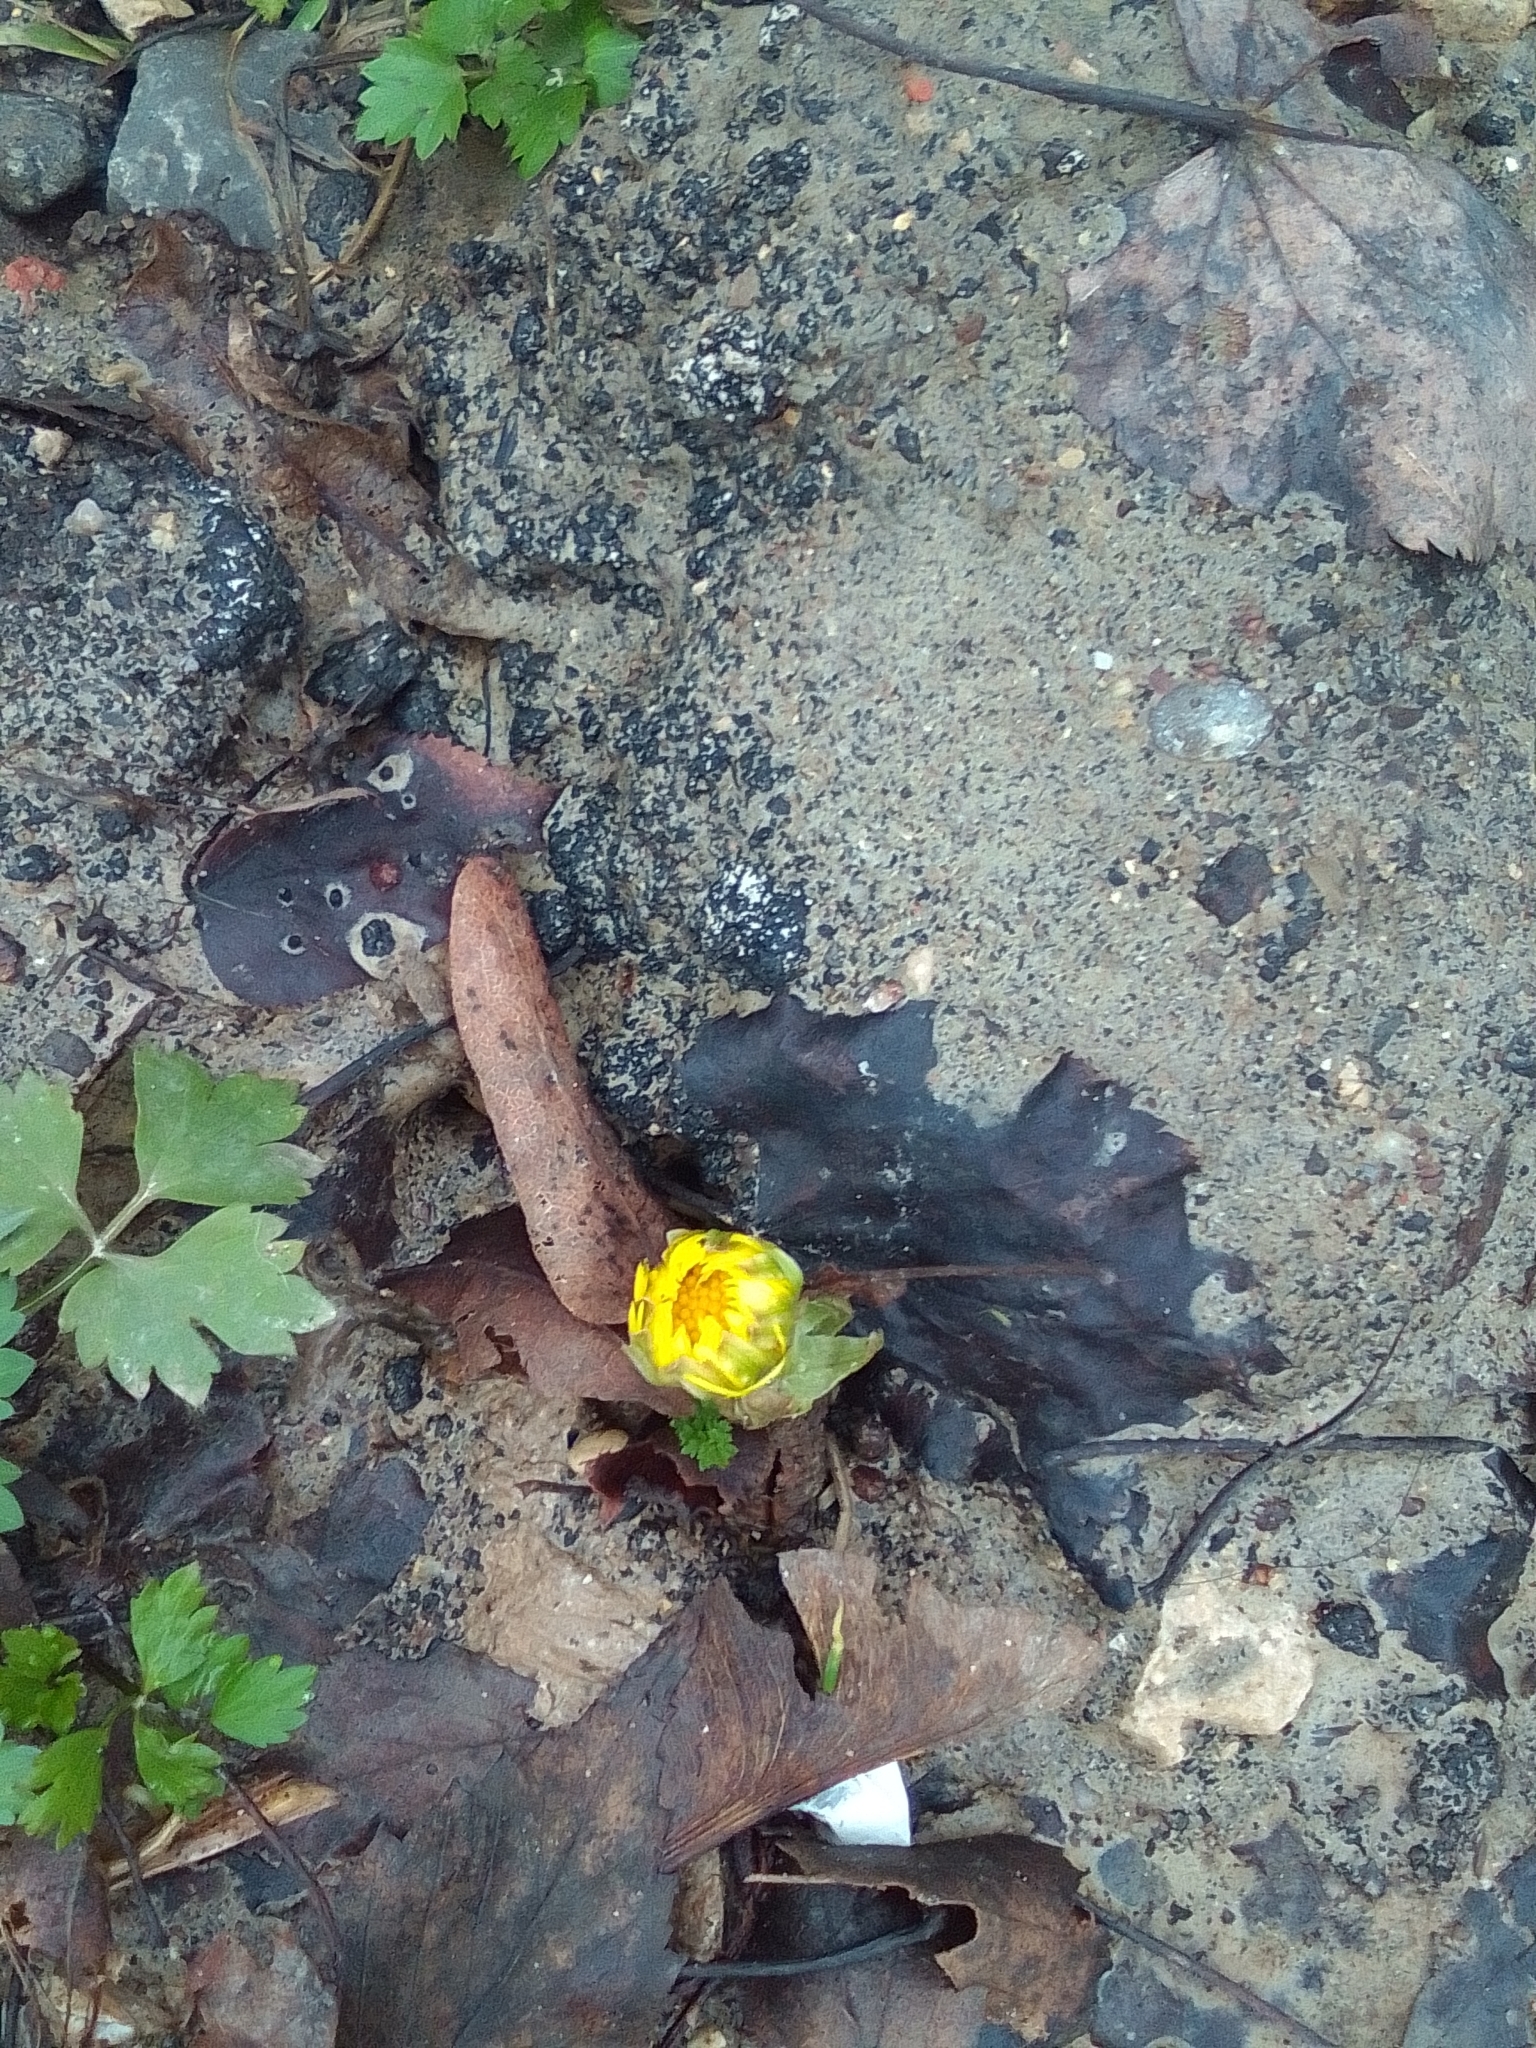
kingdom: Plantae
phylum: Tracheophyta
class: Magnoliopsida
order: Asterales
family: Asteraceae
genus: Tussilago
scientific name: Tussilago farfara
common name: Coltsfoot
